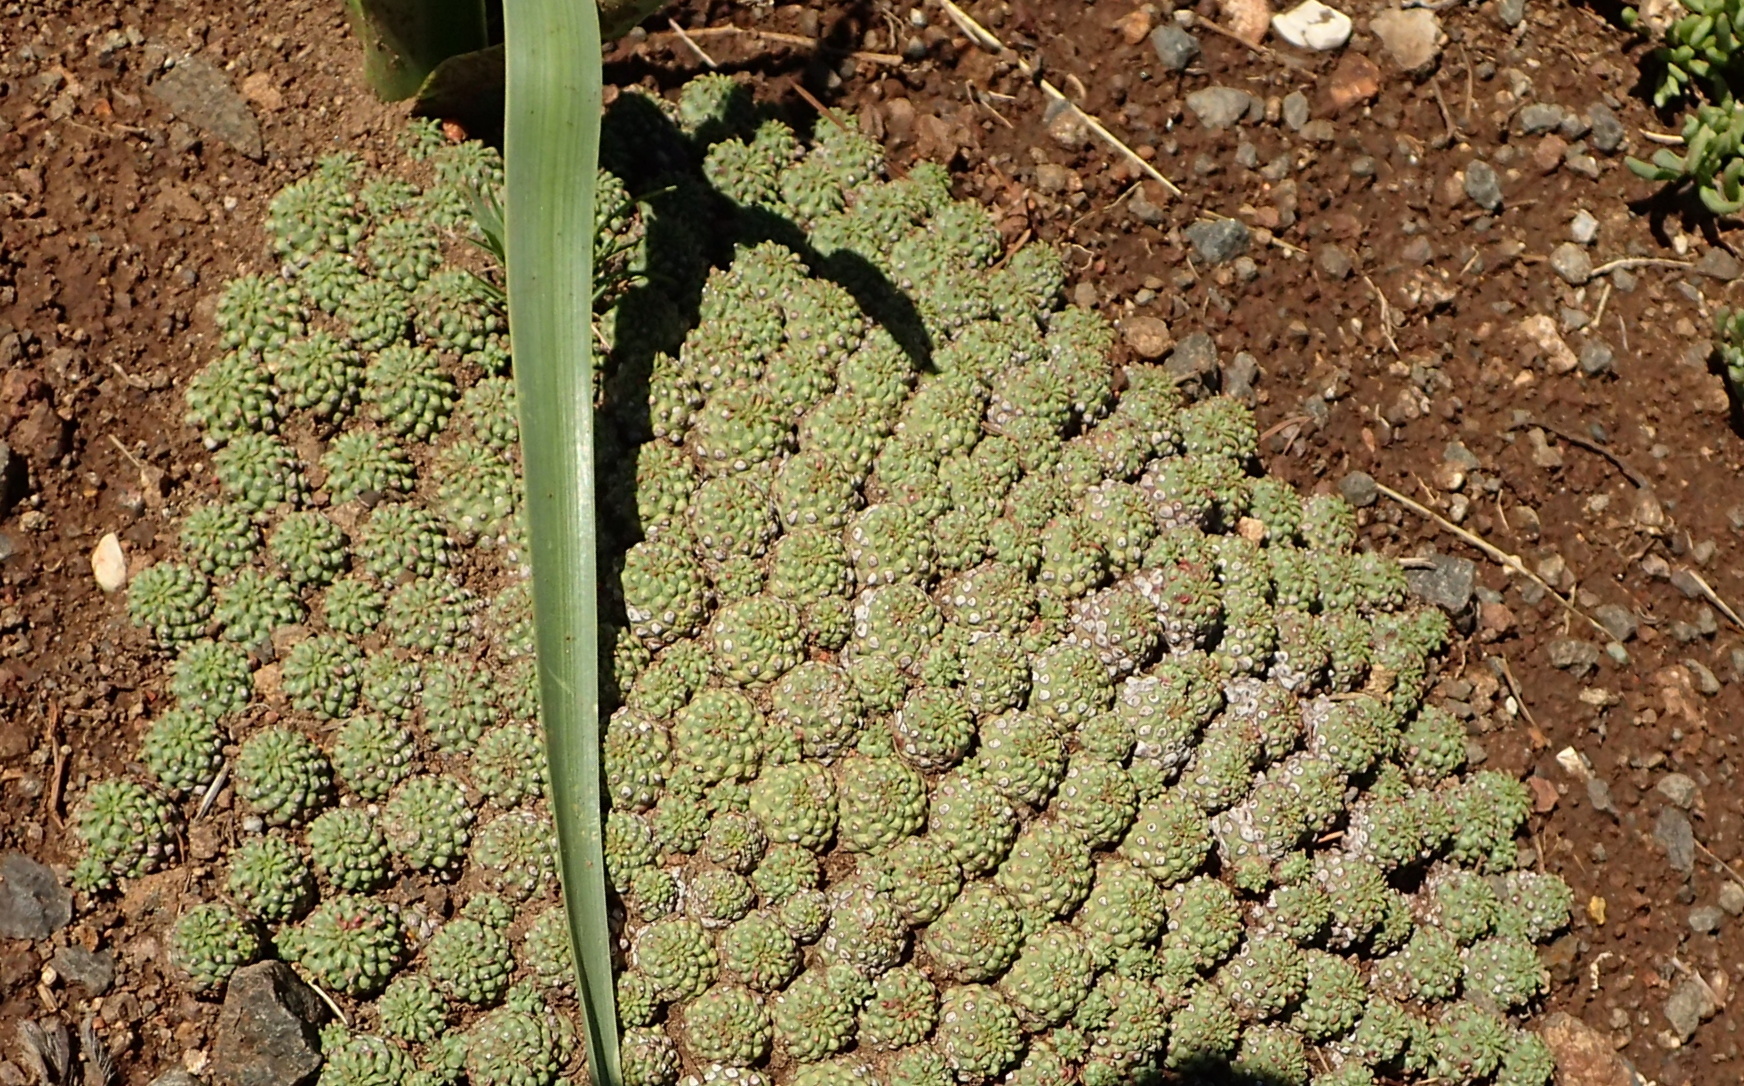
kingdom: Plantae
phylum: Tracheophyta
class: Magnoliopsida
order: Malpighiales
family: Euphorbiaceae
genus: Euphorbia
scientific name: Euphorbia clavarioides
